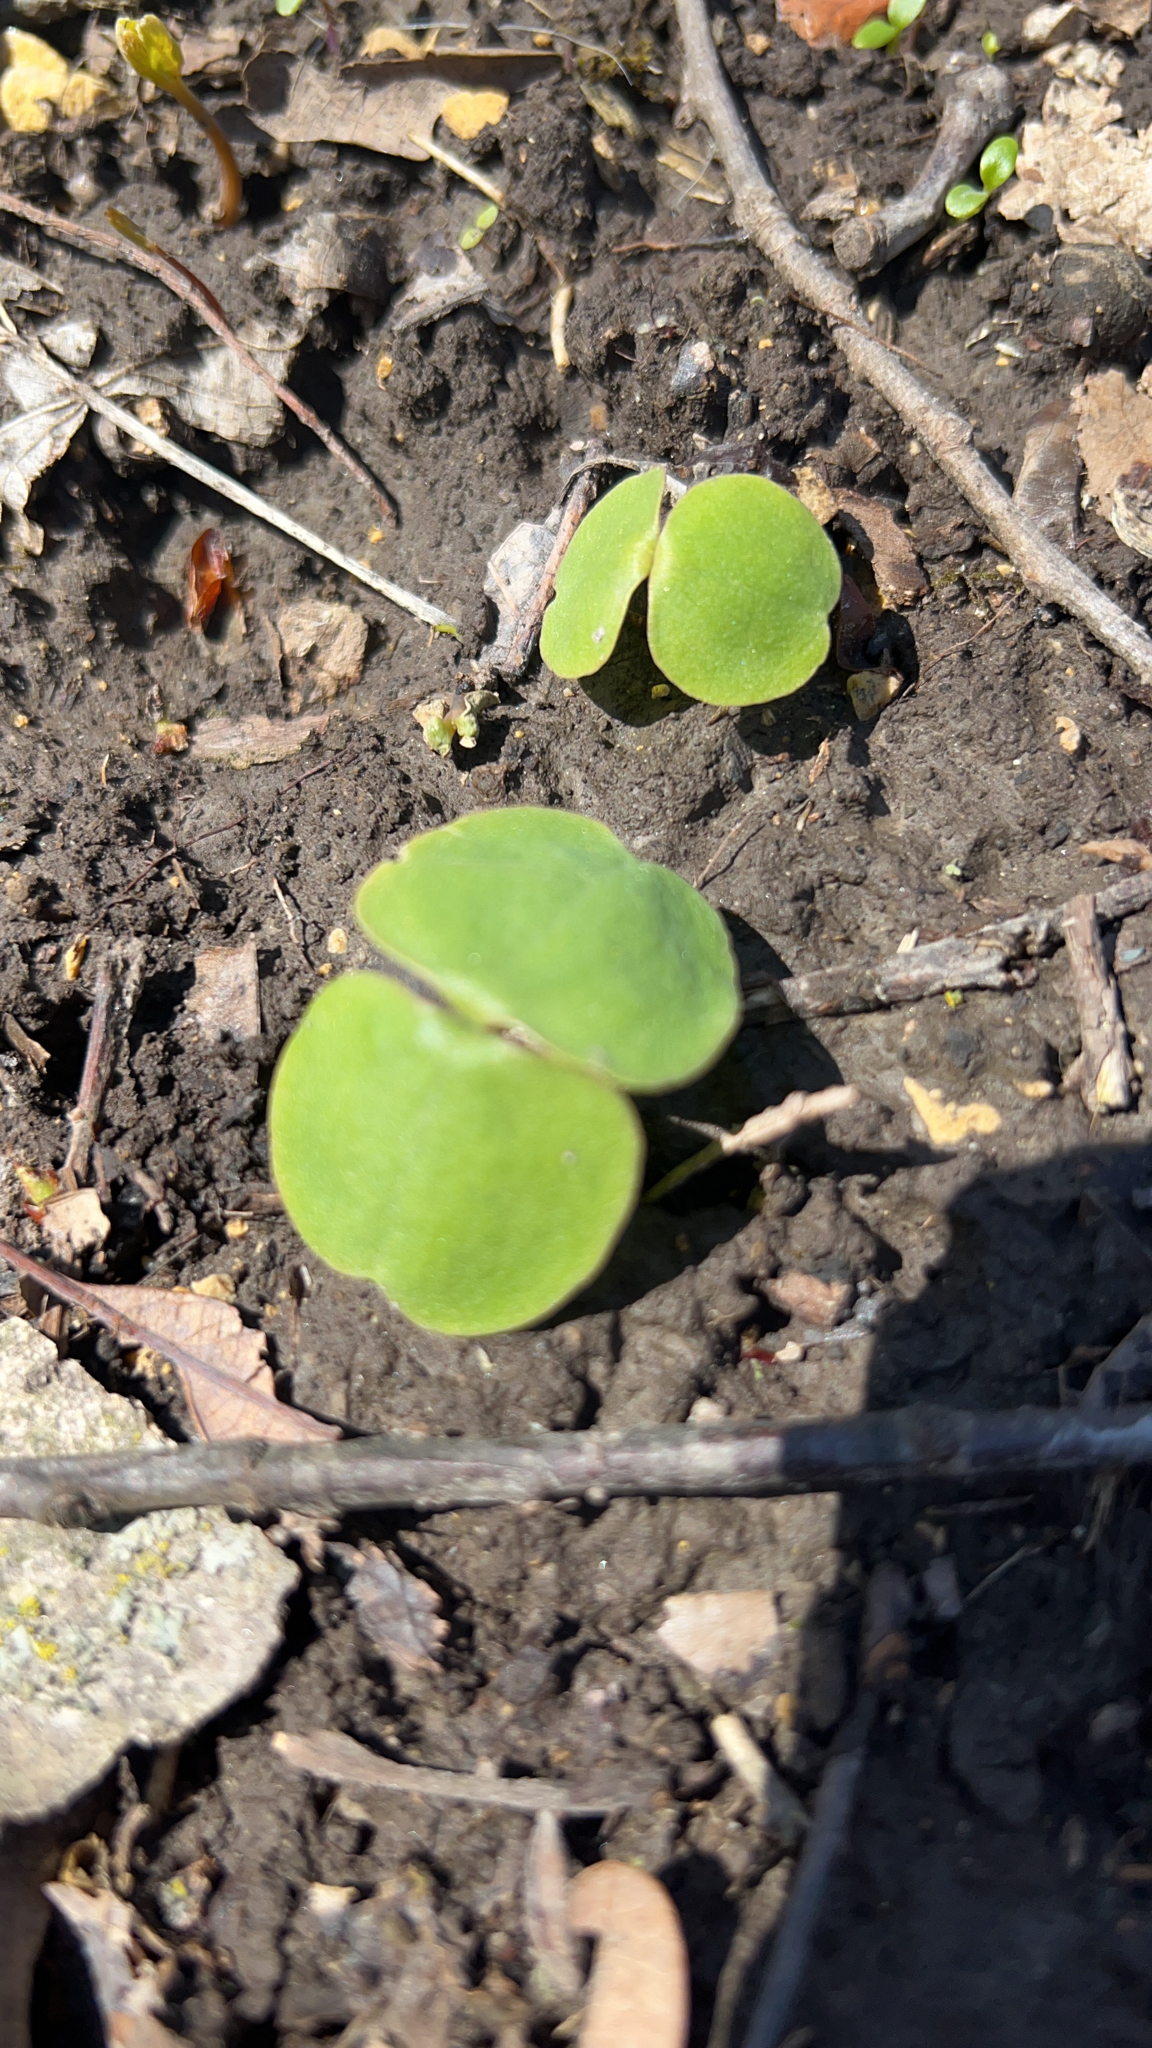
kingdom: Plantae
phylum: Tracheophyta
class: Magnoliopsida
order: Ericales
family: Balsaminaceae
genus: Impatiens
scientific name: Impatiens
